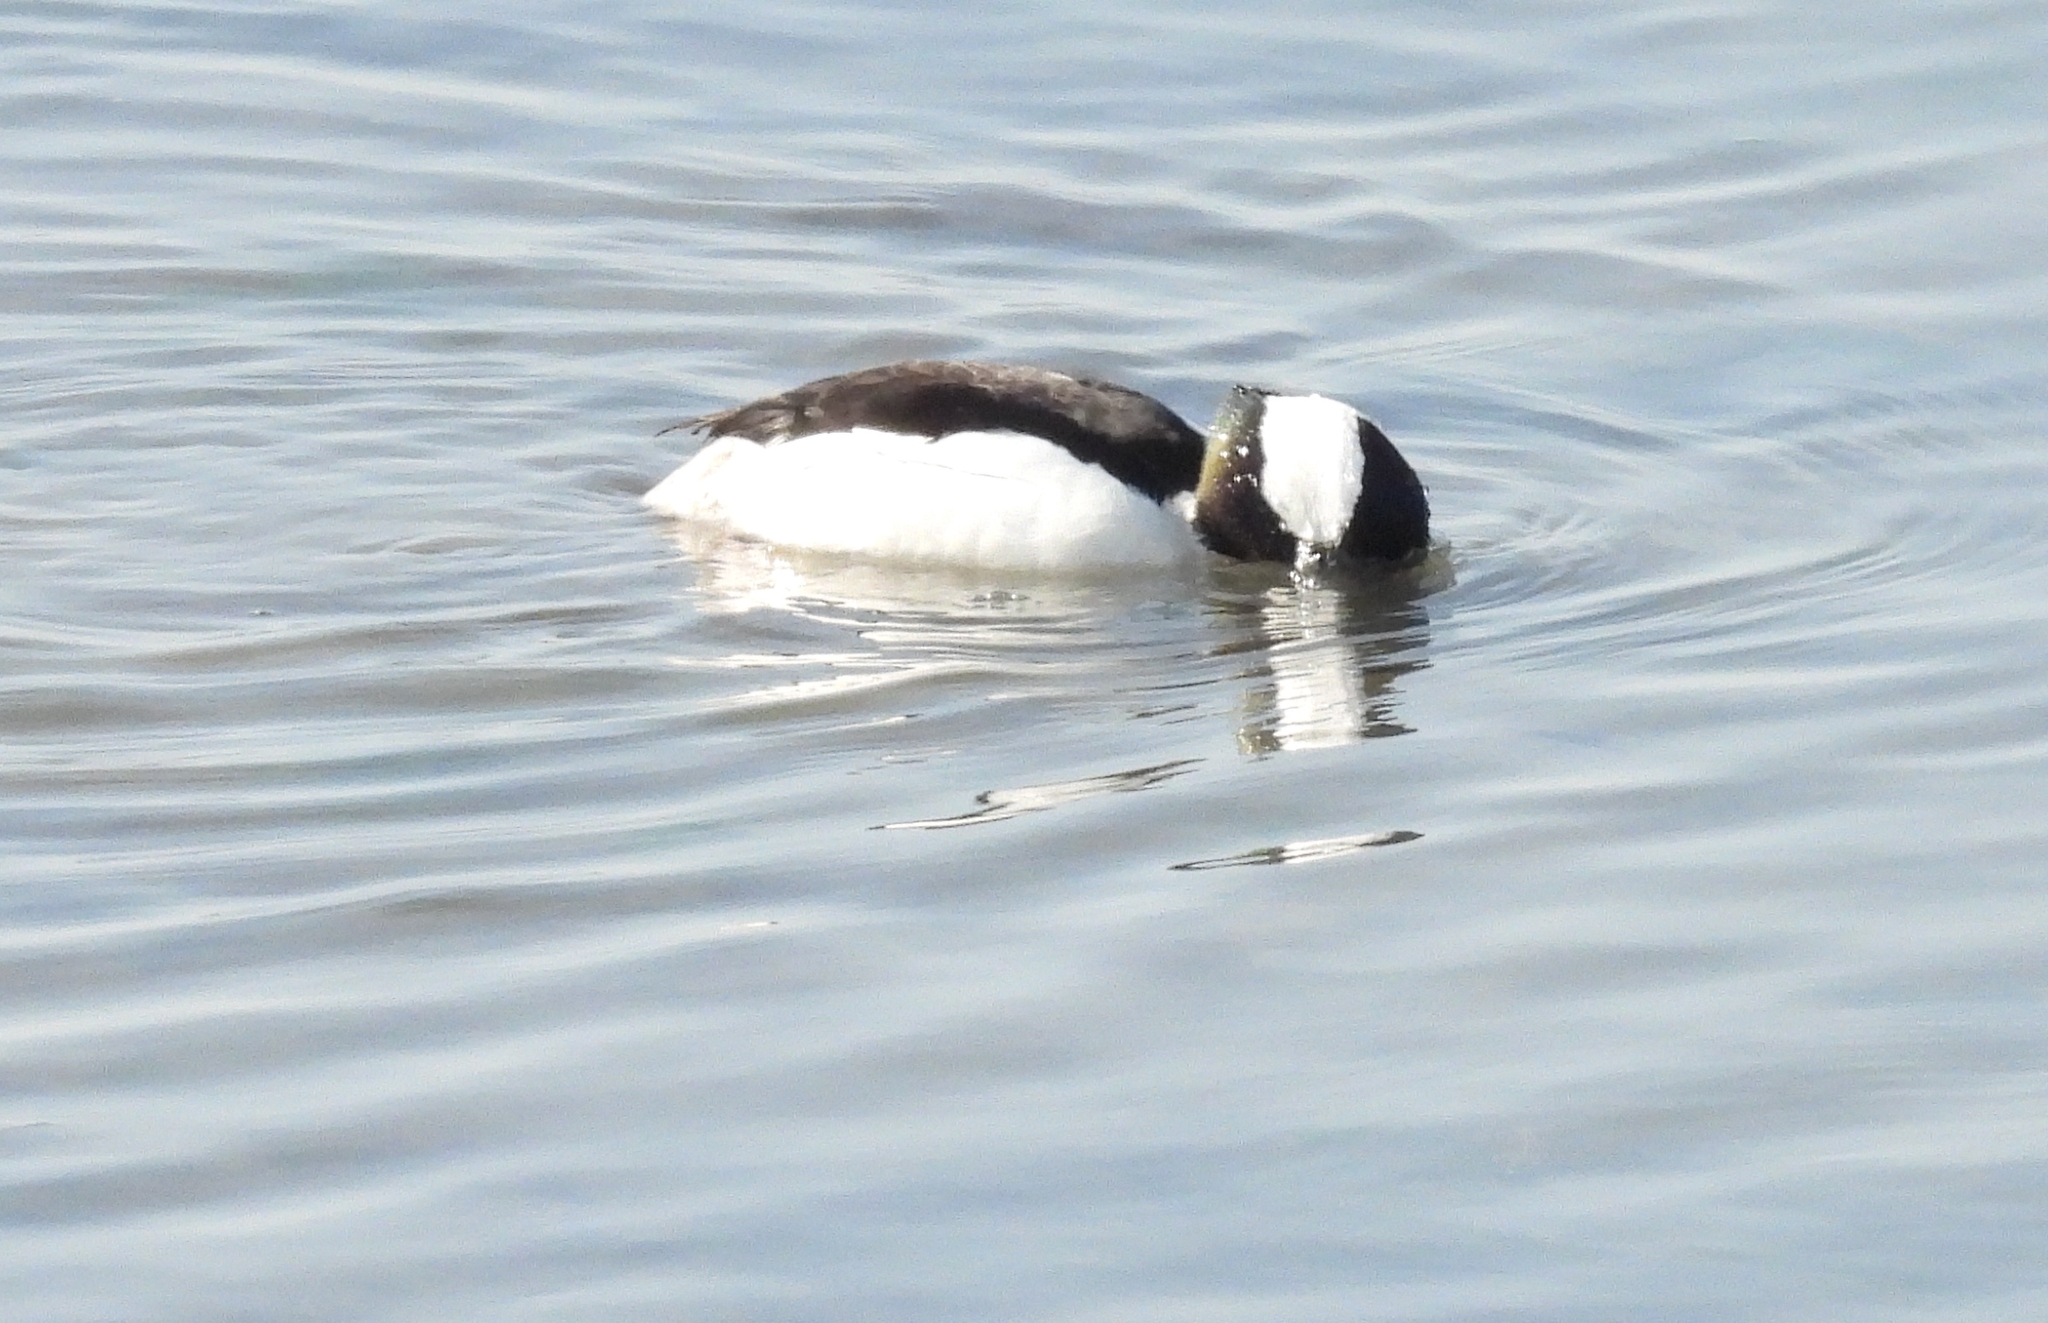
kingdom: Animalia
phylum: Chordata
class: Aves
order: Anseriformes
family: Anatidae
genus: Bucephala
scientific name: Bucephala albeola
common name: Bufflehead
